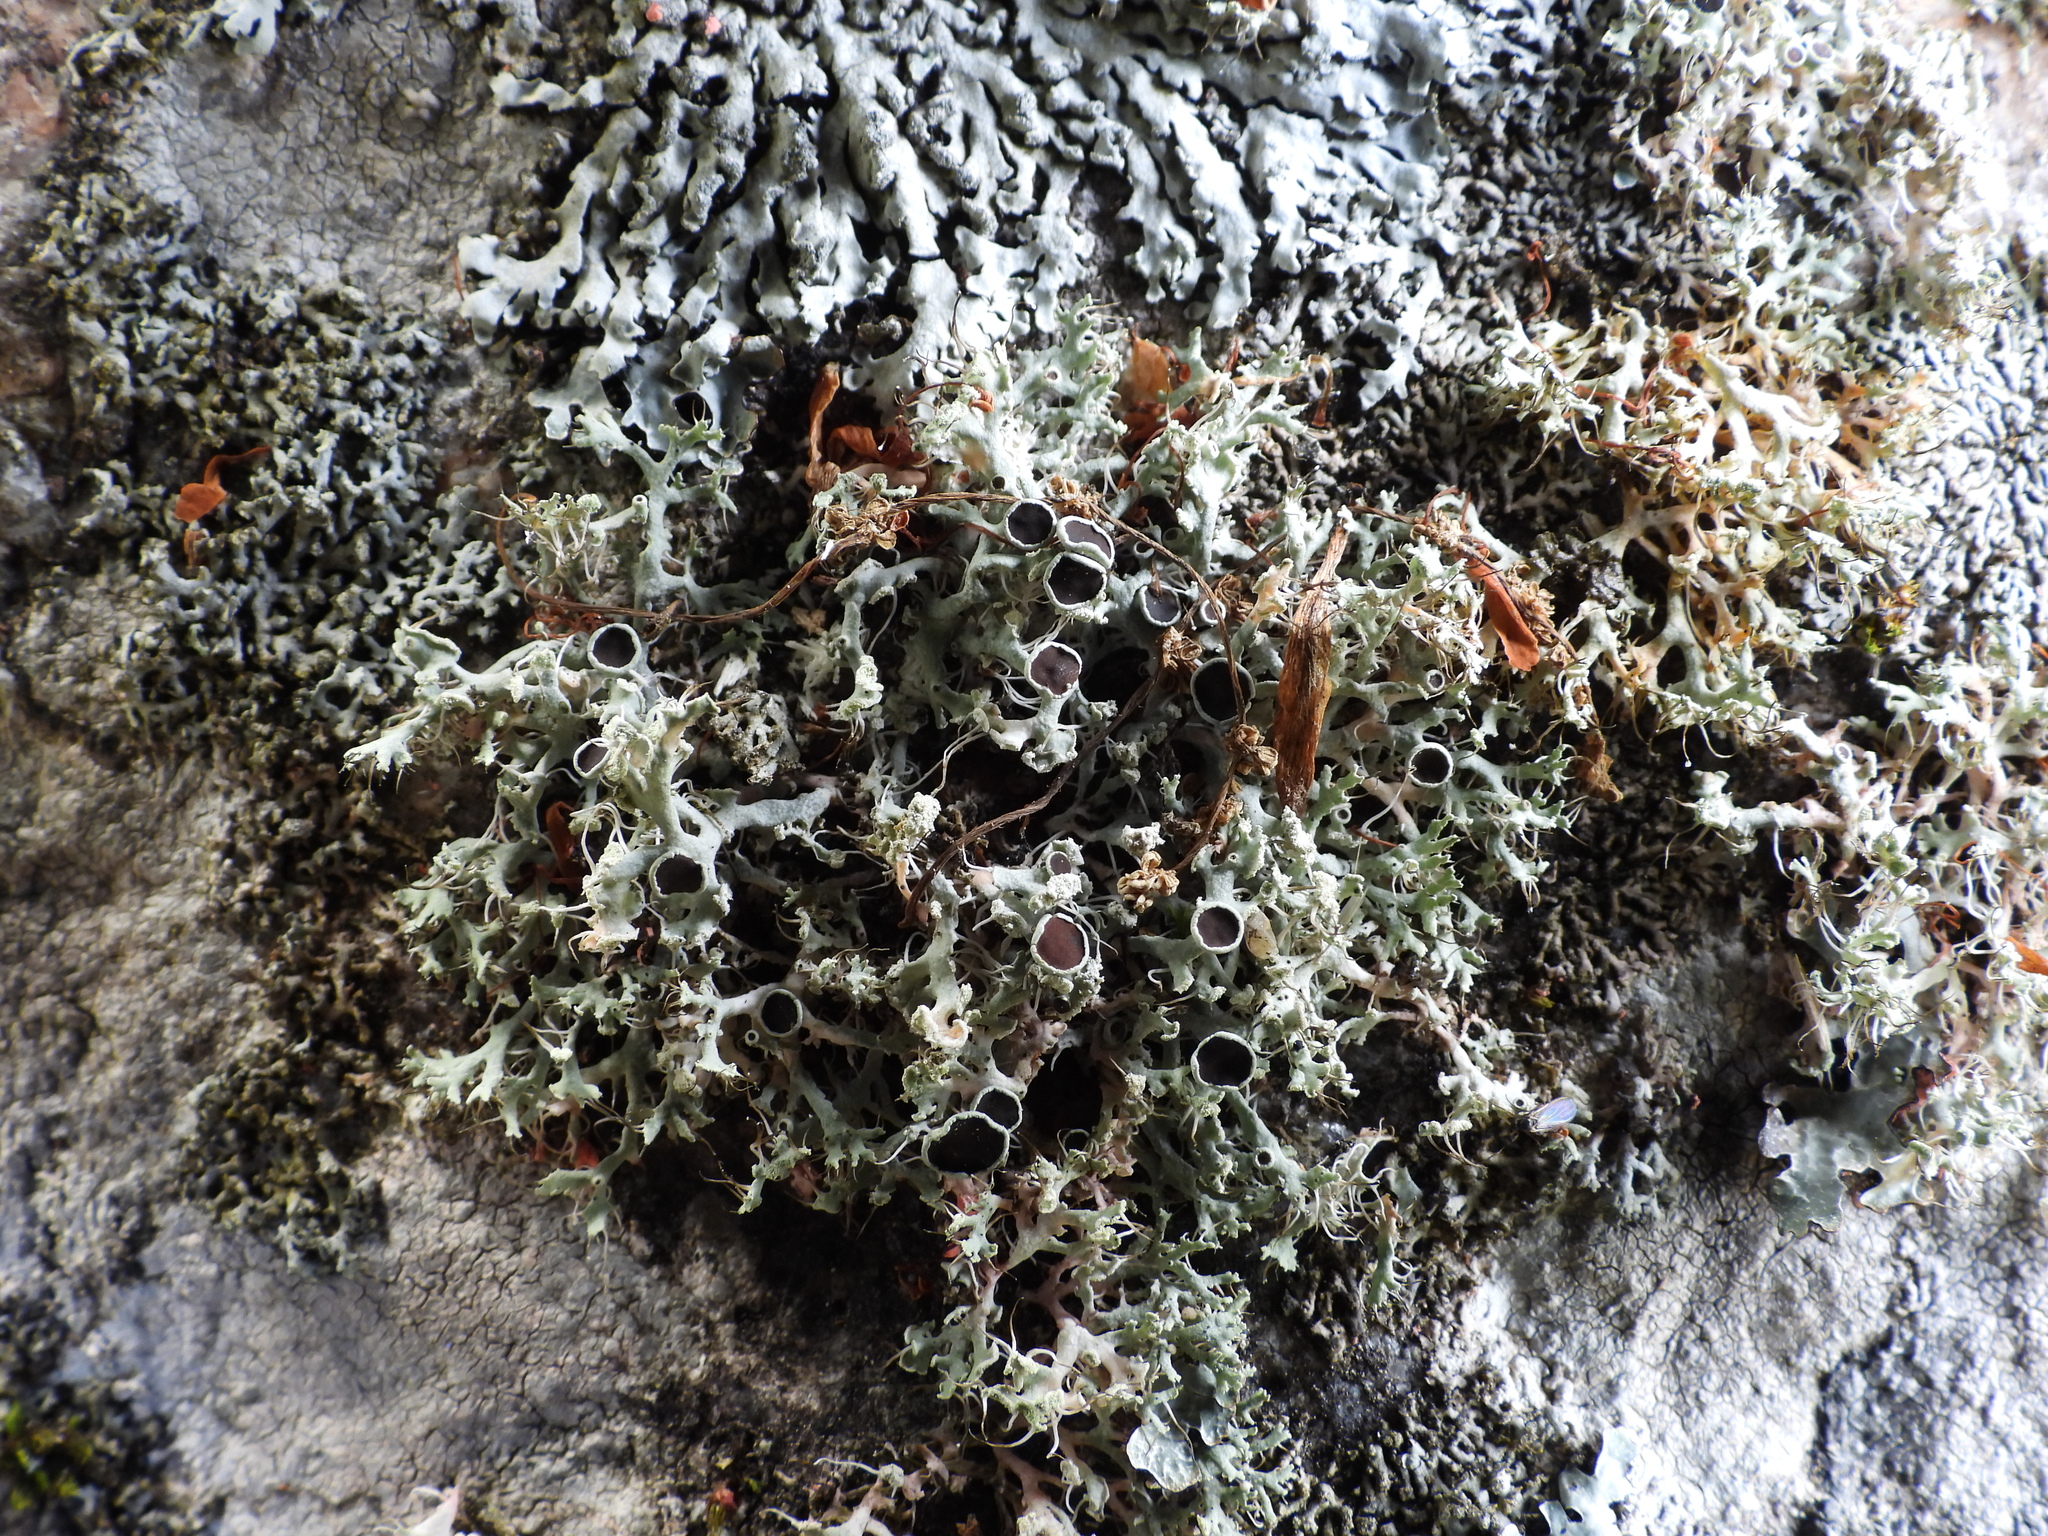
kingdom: Fungi
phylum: Ascomycota
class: Lecanoromycetes
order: Caliciales
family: Physciaceae
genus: Physcia
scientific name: Physcia tenella
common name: Fringed rosette lichen
